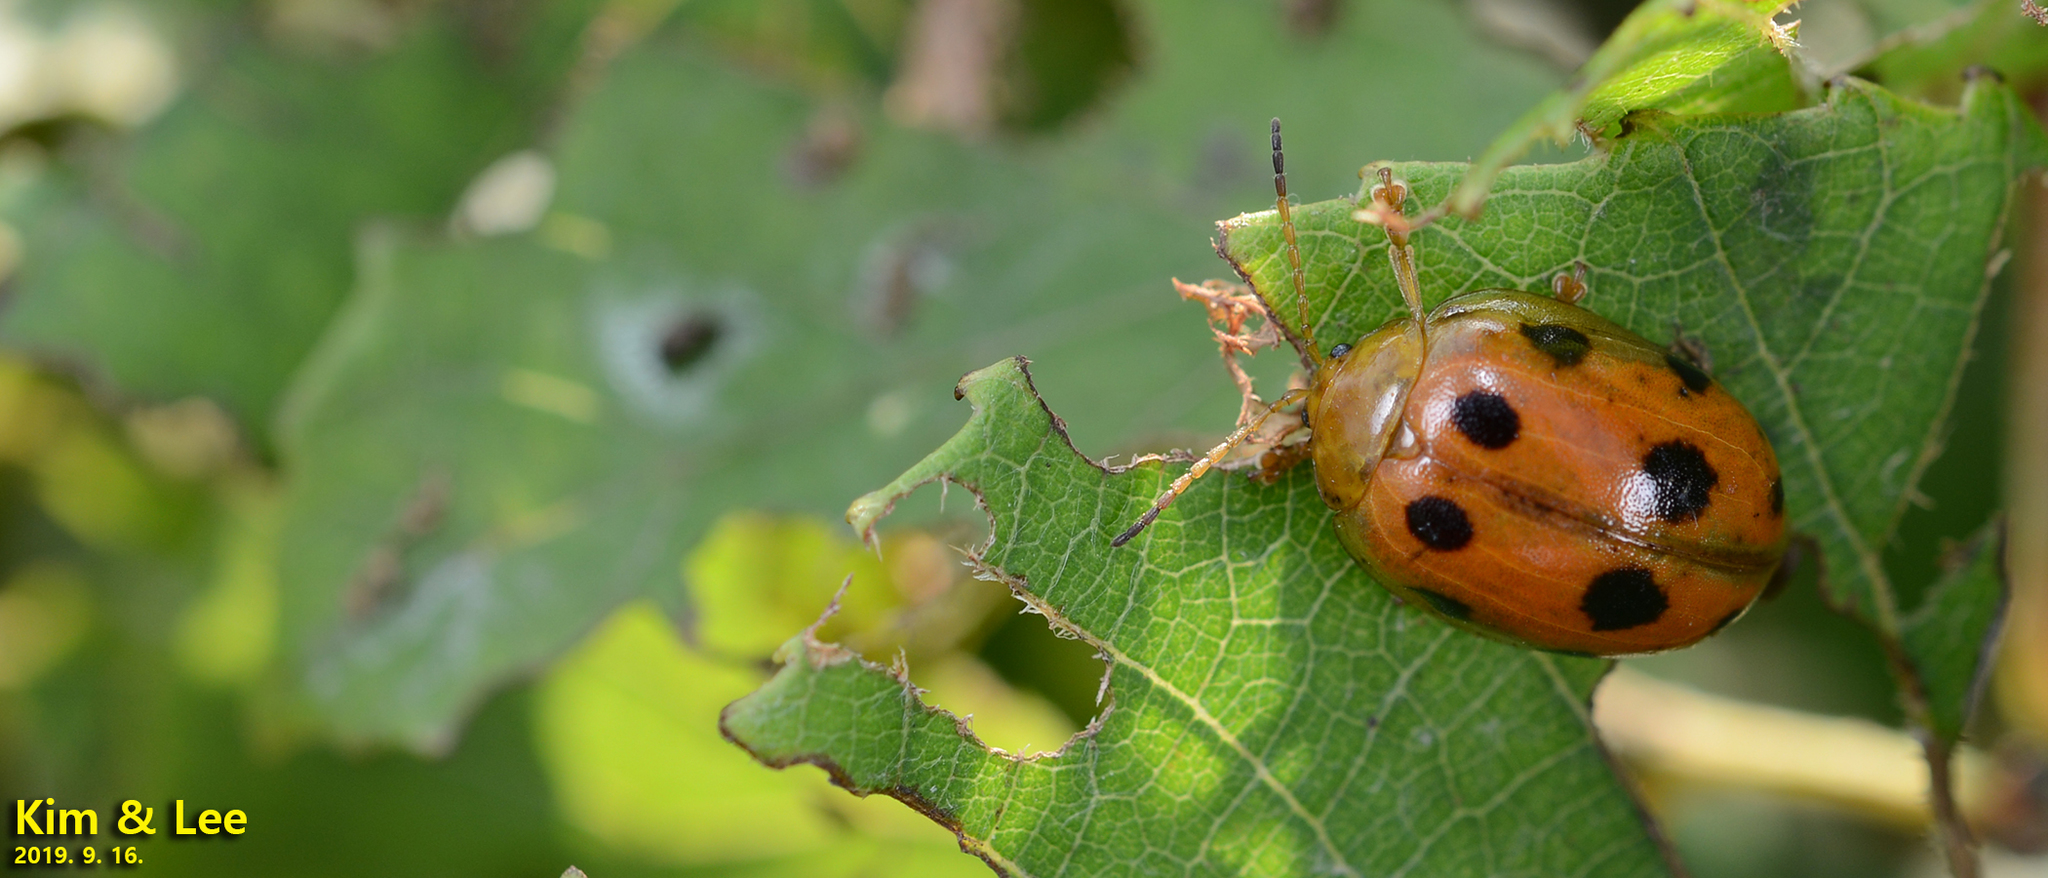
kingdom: Animalia
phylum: Arthropoda
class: Insecta
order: Coleoptera
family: Chrysomelidae
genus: Oides
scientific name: Oides decempunctata
